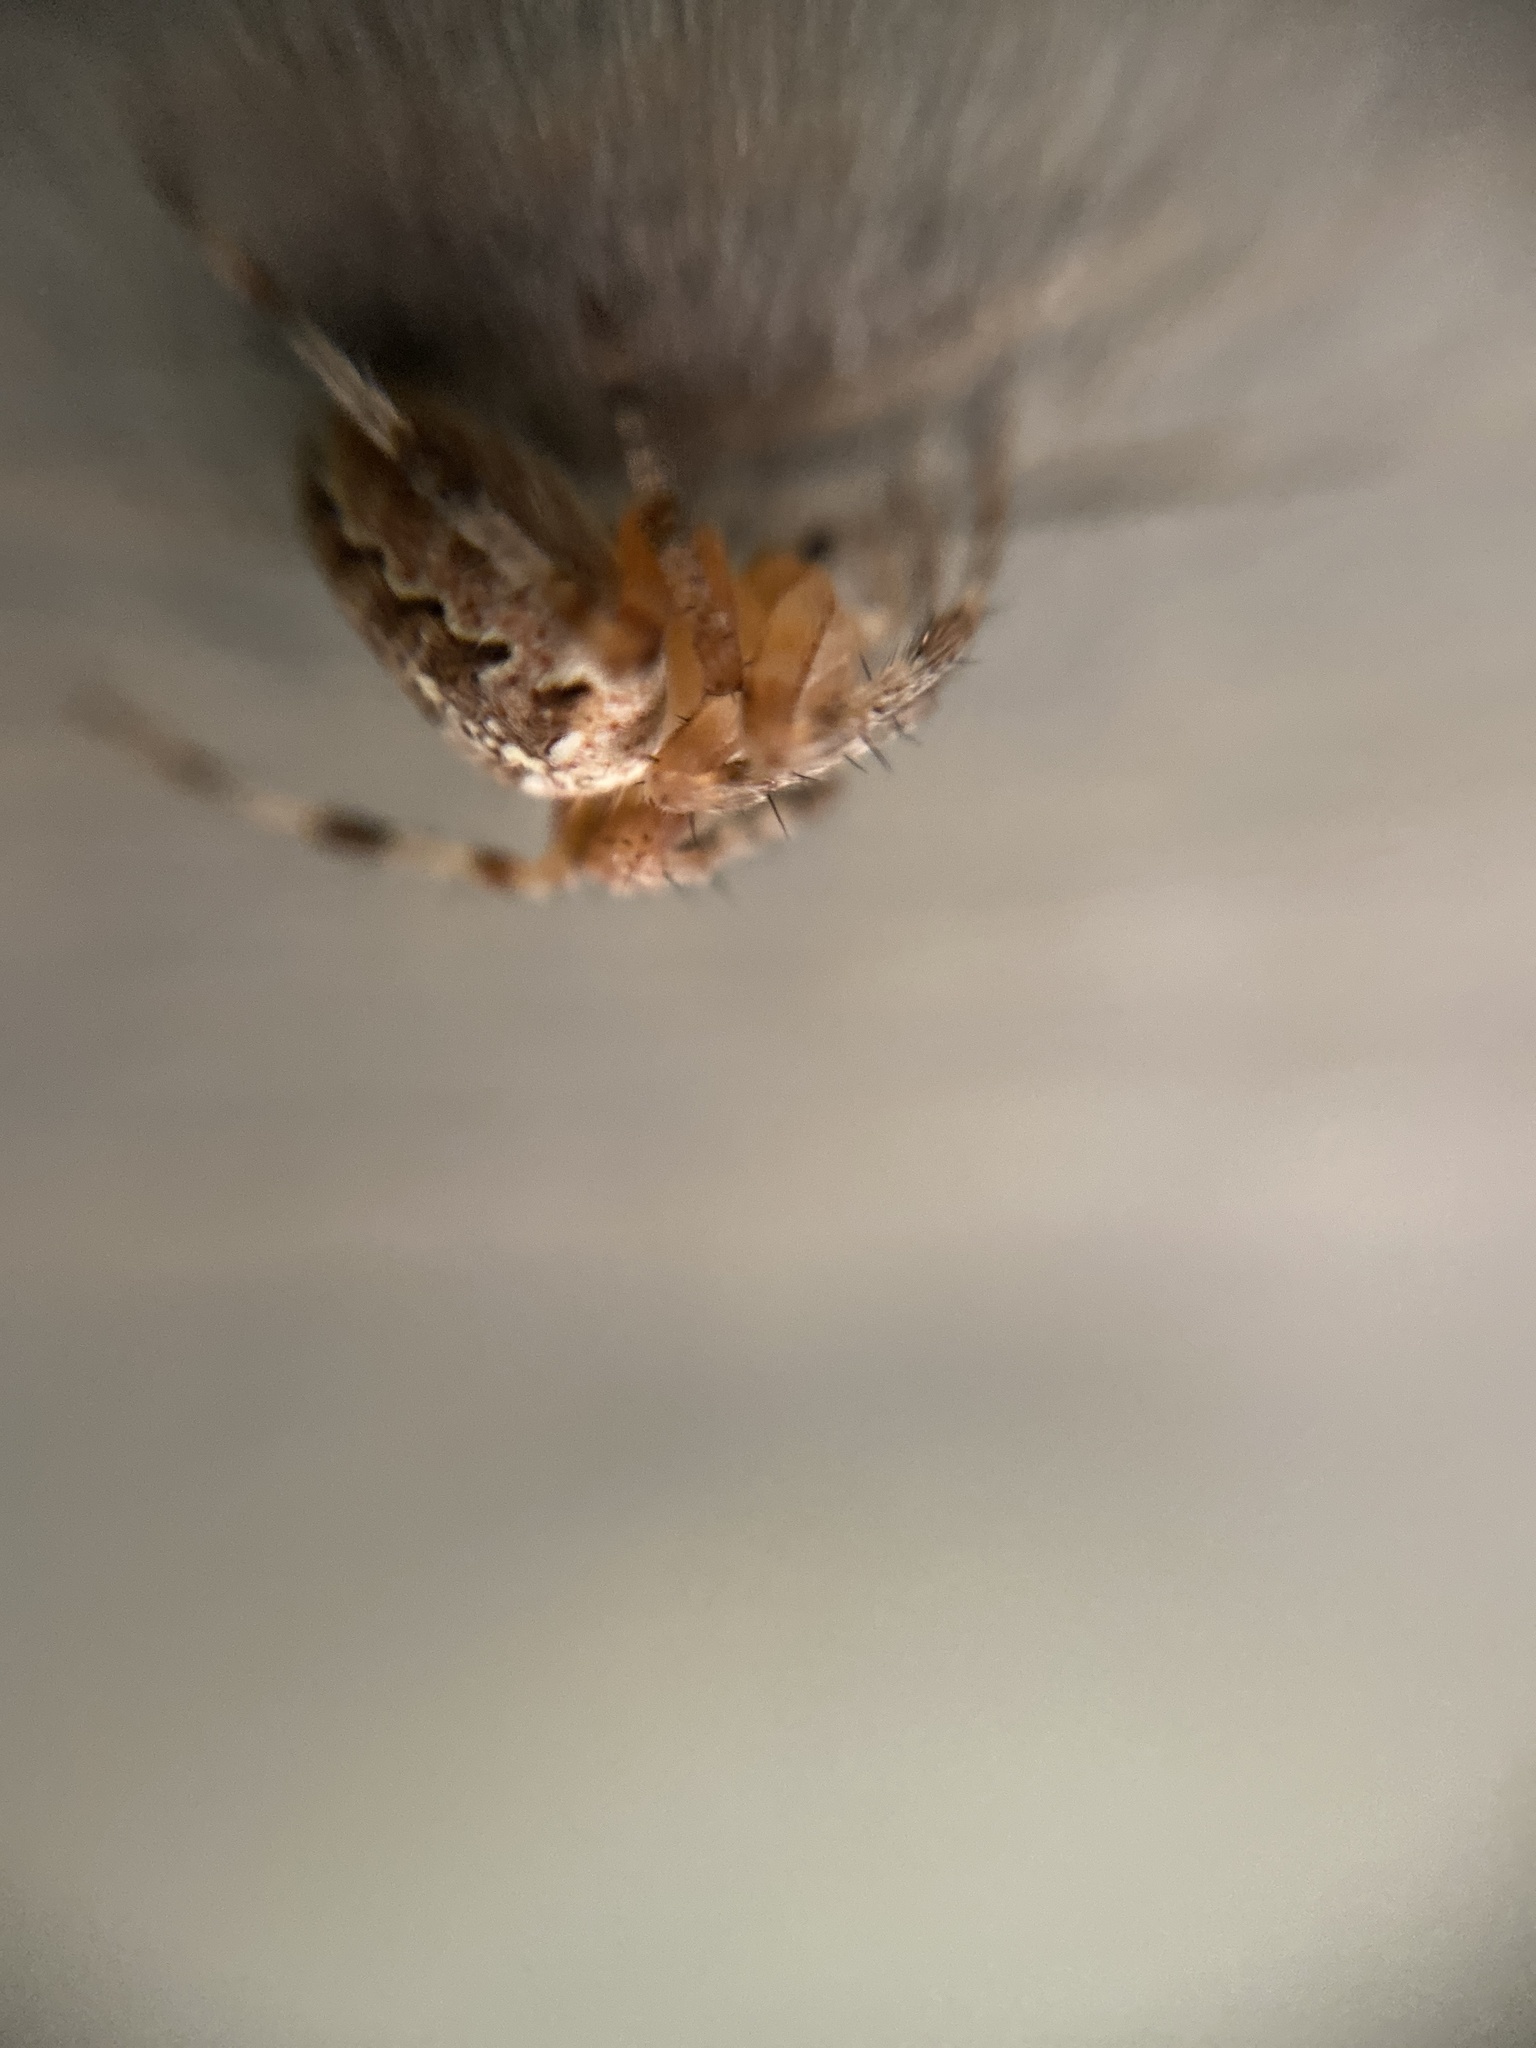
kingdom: Animalia
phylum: Arthropoda
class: Arachnida
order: Araneae
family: Araneidae
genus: Araneus
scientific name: Araneus diadematus
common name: Cross orbweaver
